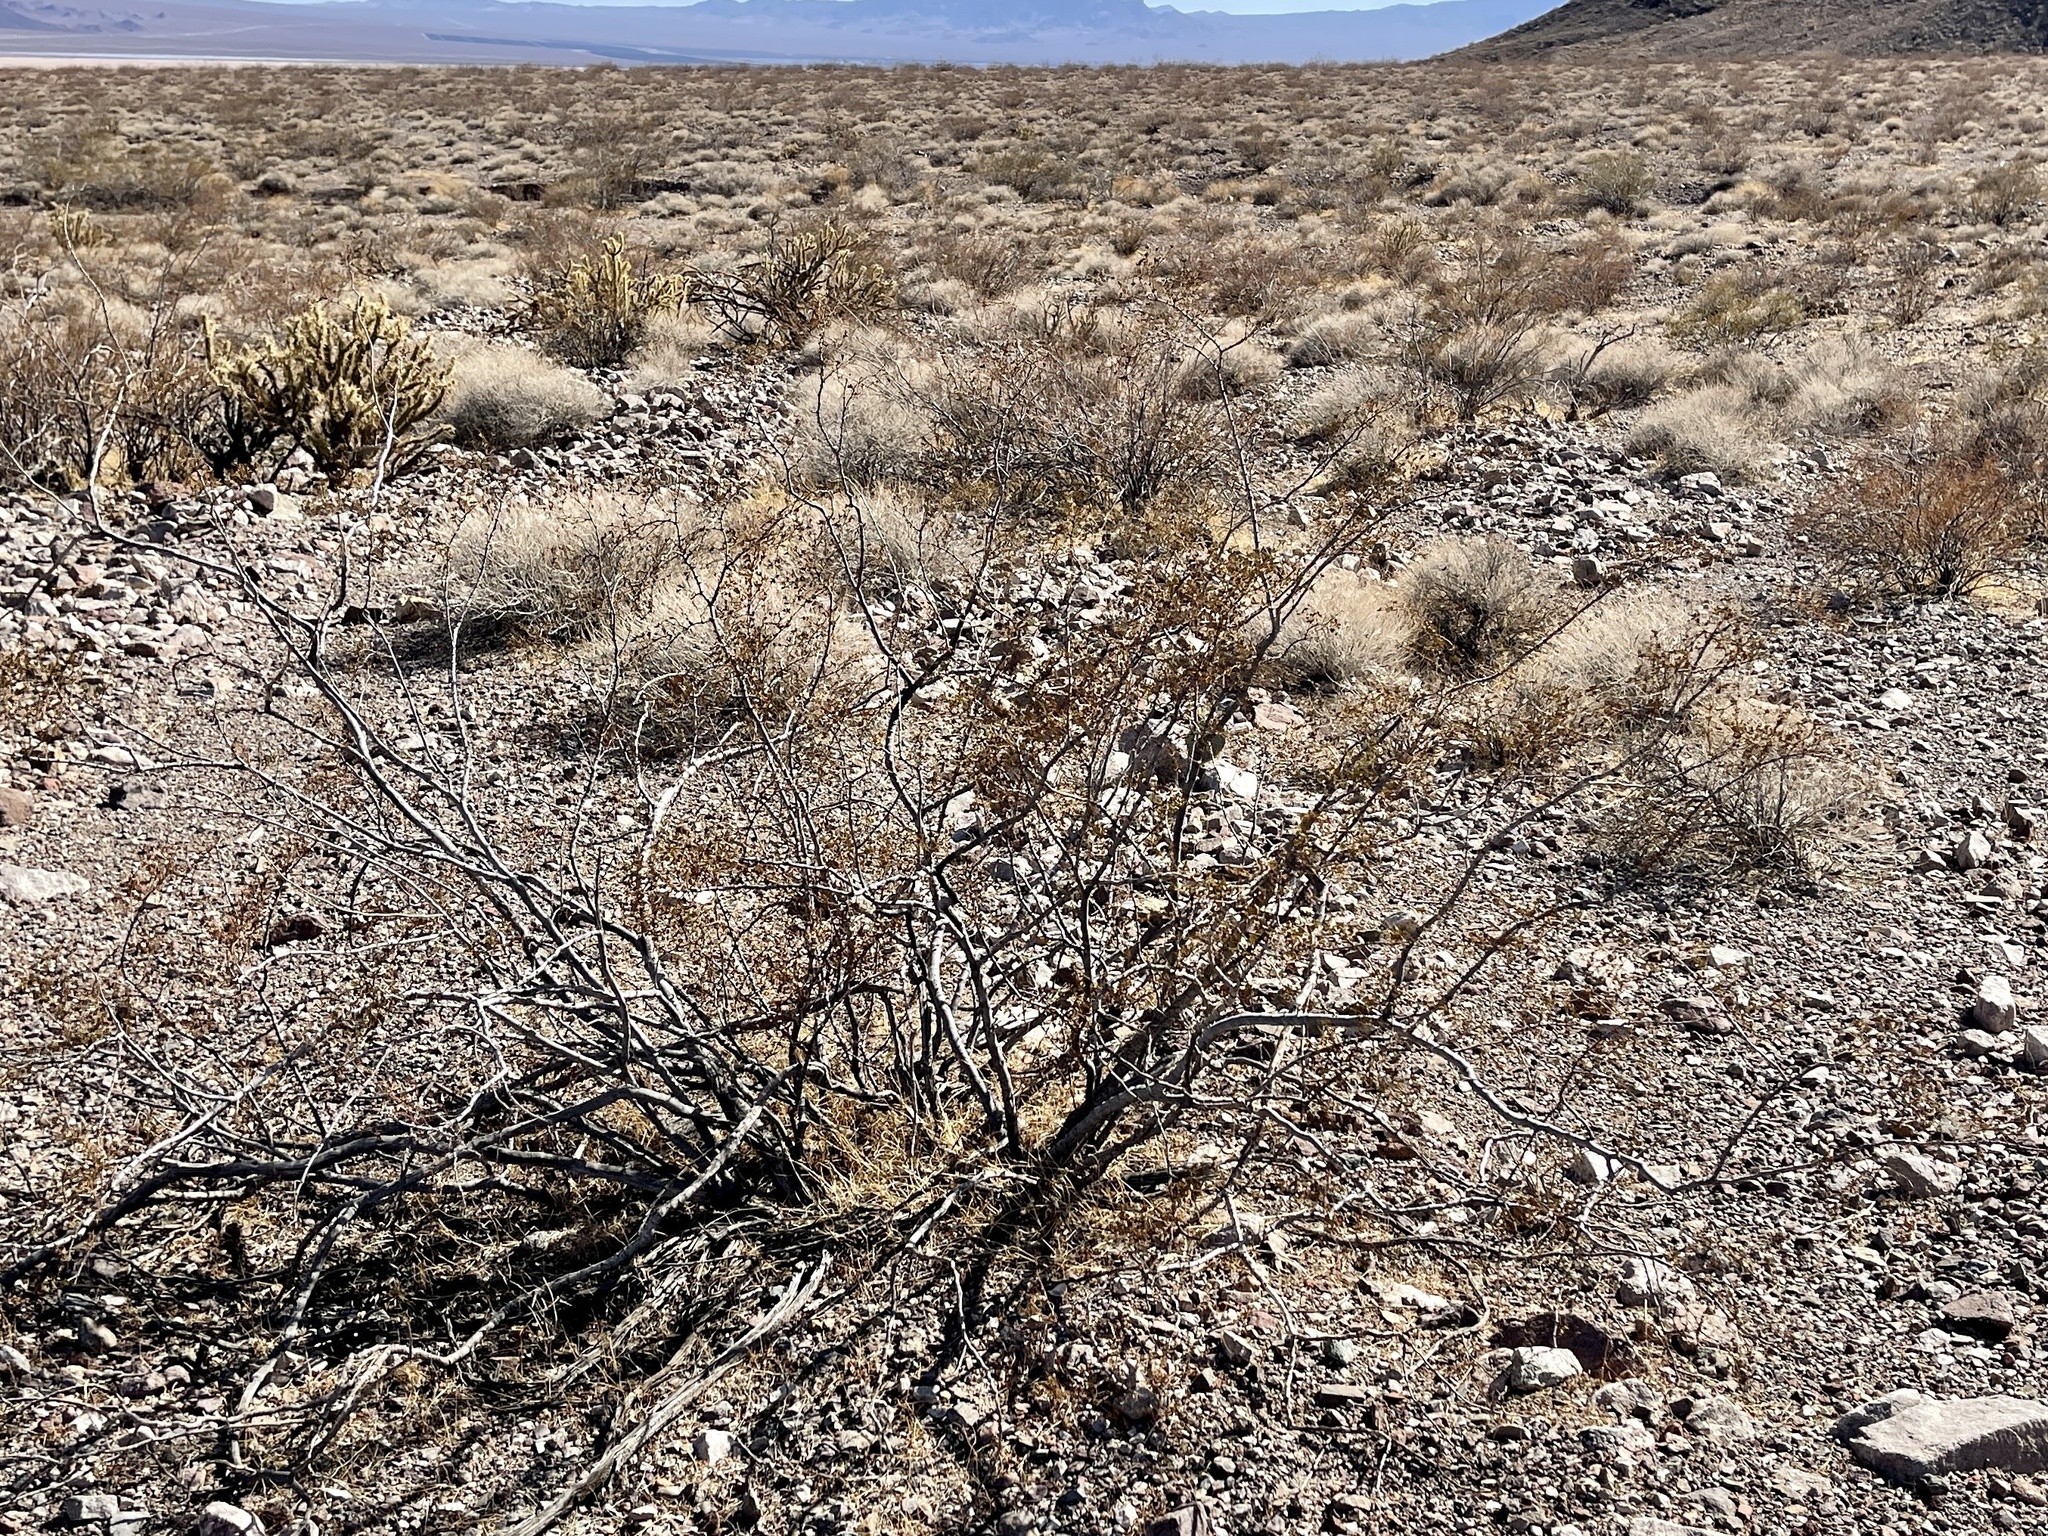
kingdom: Plantae
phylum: Tracheophyta
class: Magnoliopsida
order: Zygophyllales
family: Zygophyllaceae
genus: Larrea
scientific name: Larrea tridentata
